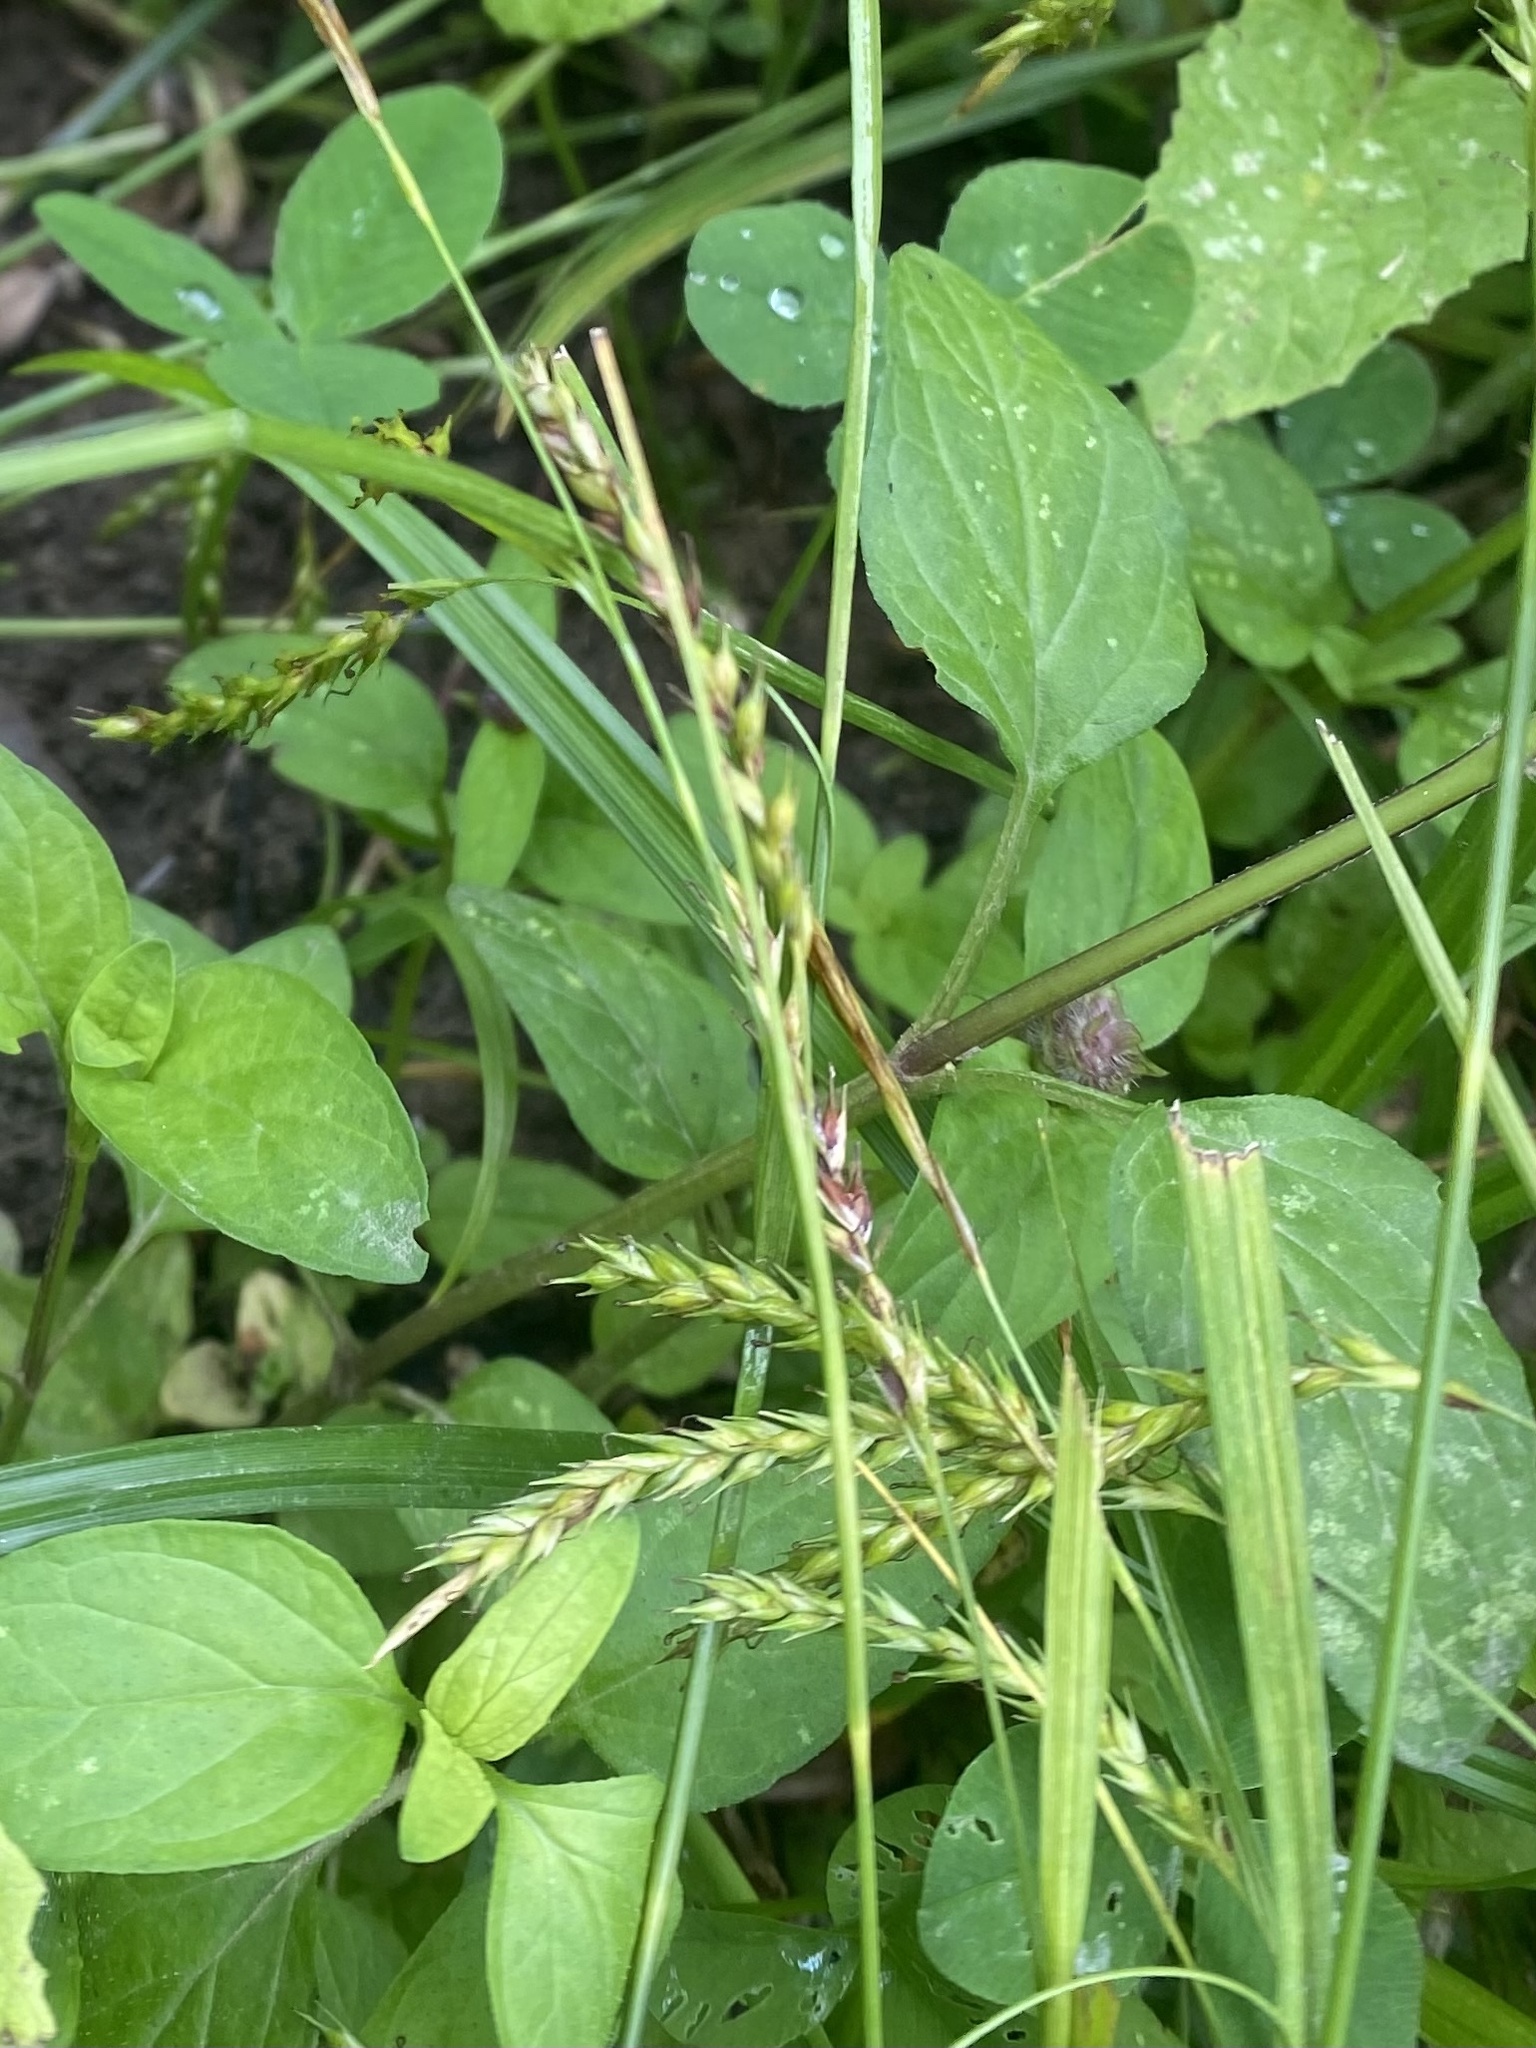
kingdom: Plantae
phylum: Tracheophyta
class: Liliopsida
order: Poales
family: Cyperaceae
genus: Carex
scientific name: Carex sylvatica
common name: Wood-sedge
